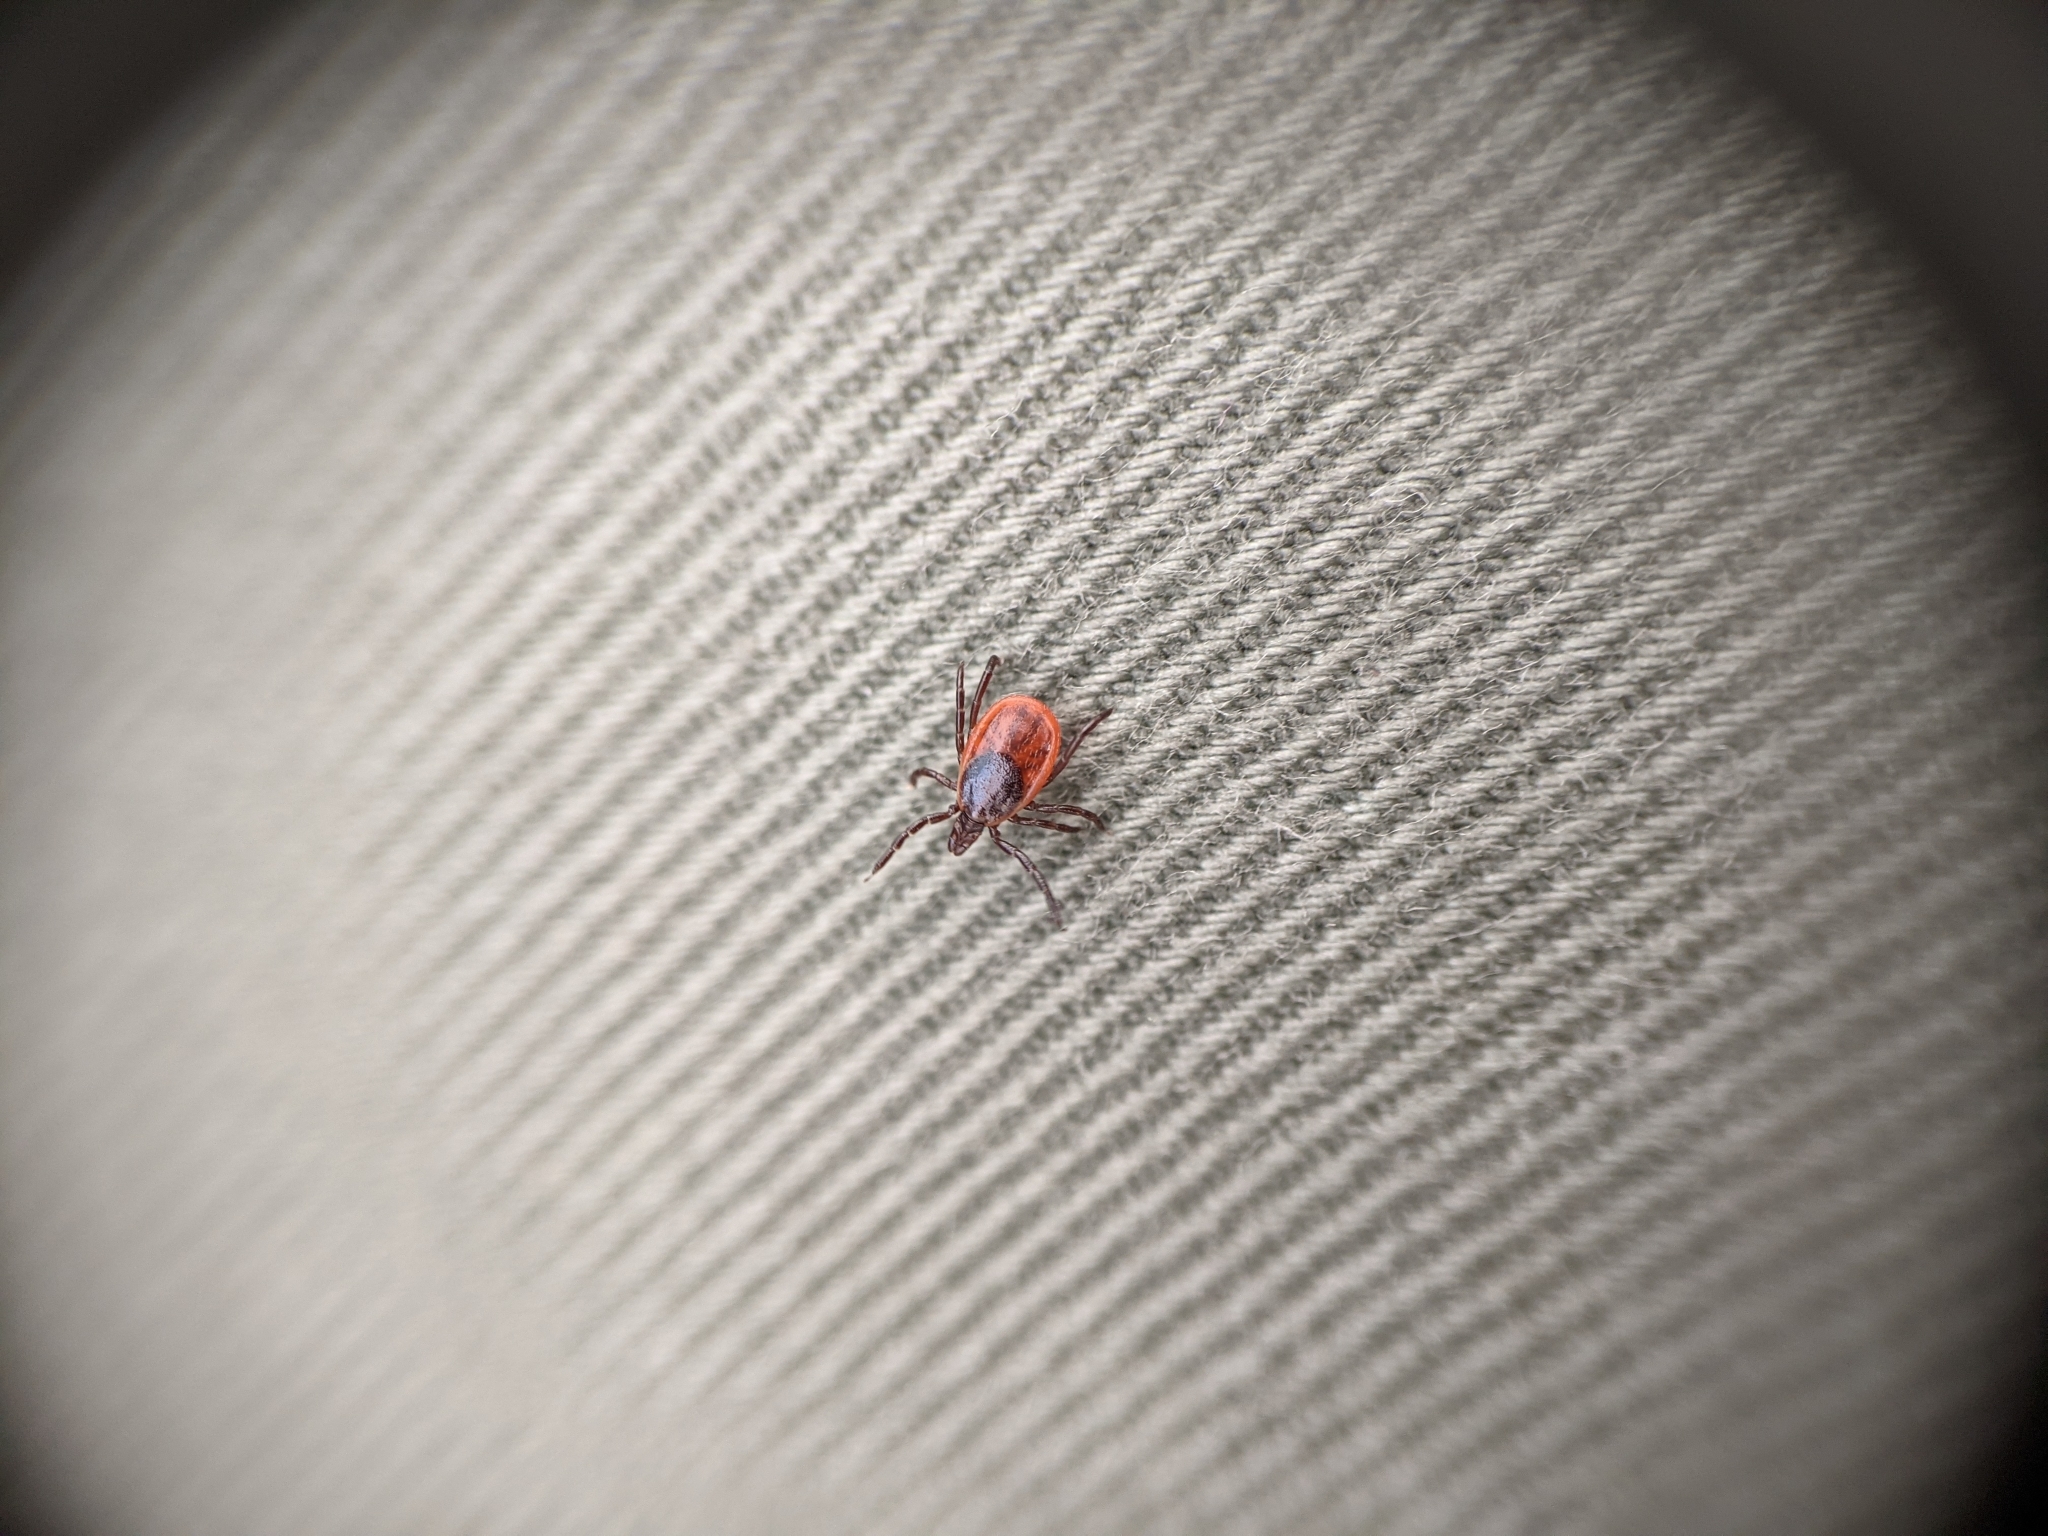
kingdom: Animalia
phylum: Arthropoda
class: Arachnida
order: Ixodida
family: Ixodidae
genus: Ixodes
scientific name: Ixodes scapularis
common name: Black legged tick
